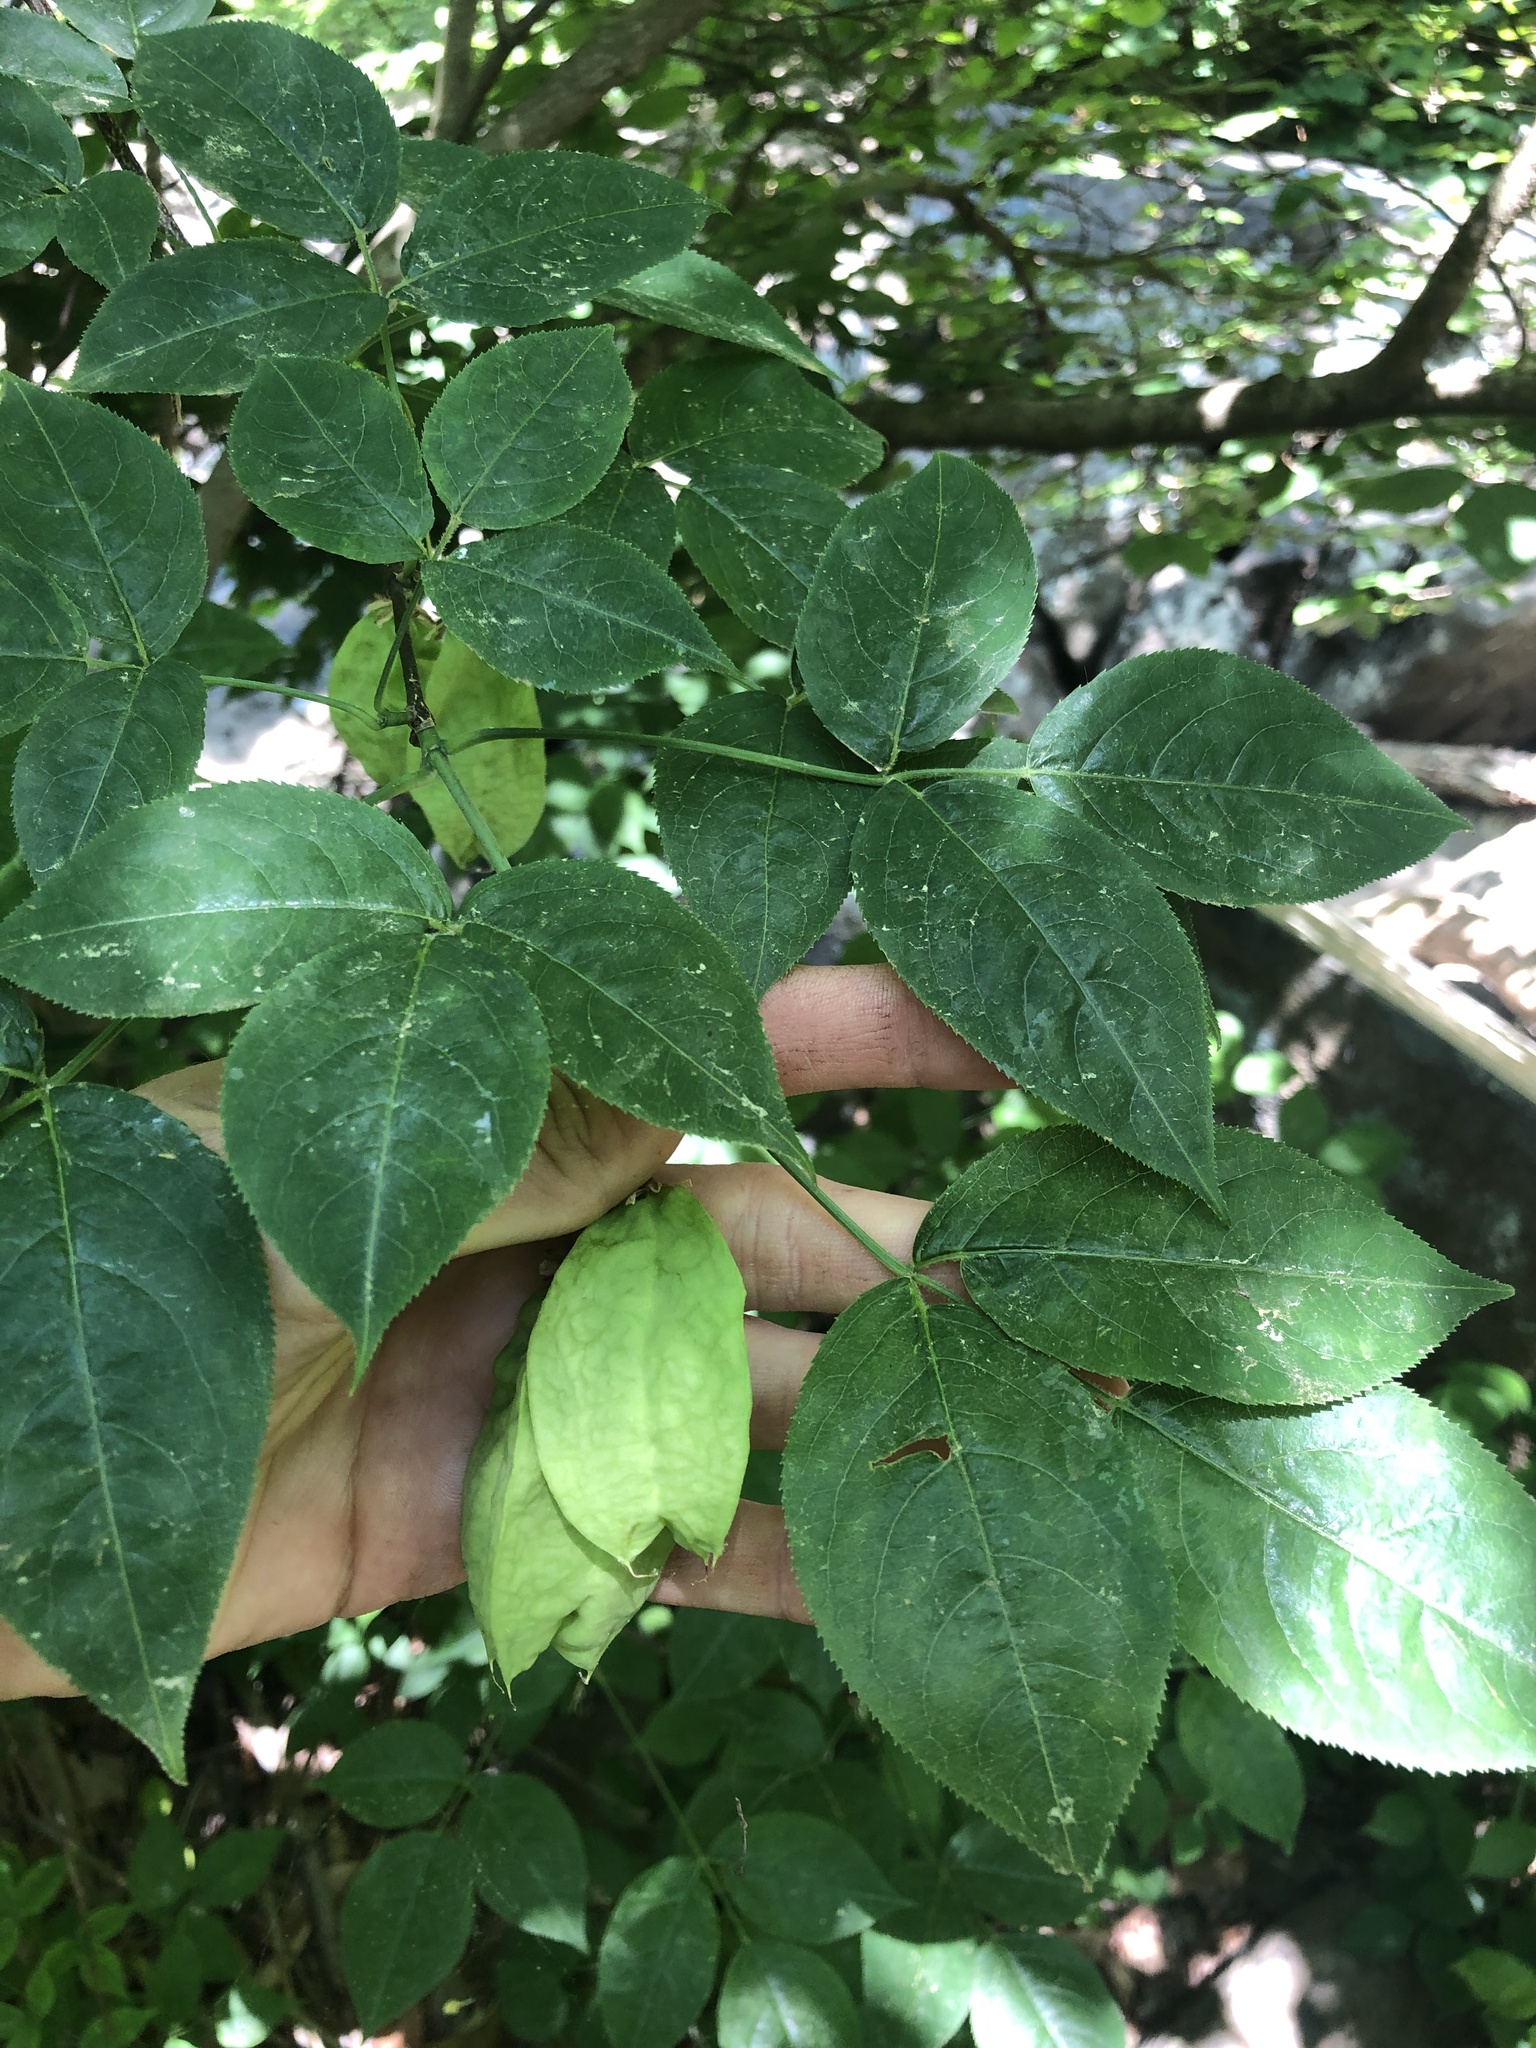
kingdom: Plantae
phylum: Tracheophyta
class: Magnoliopsida
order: Crossosomatales
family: Staphyleaceae
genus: Staphylea
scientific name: Staphylea trifolia
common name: American bladdernut
